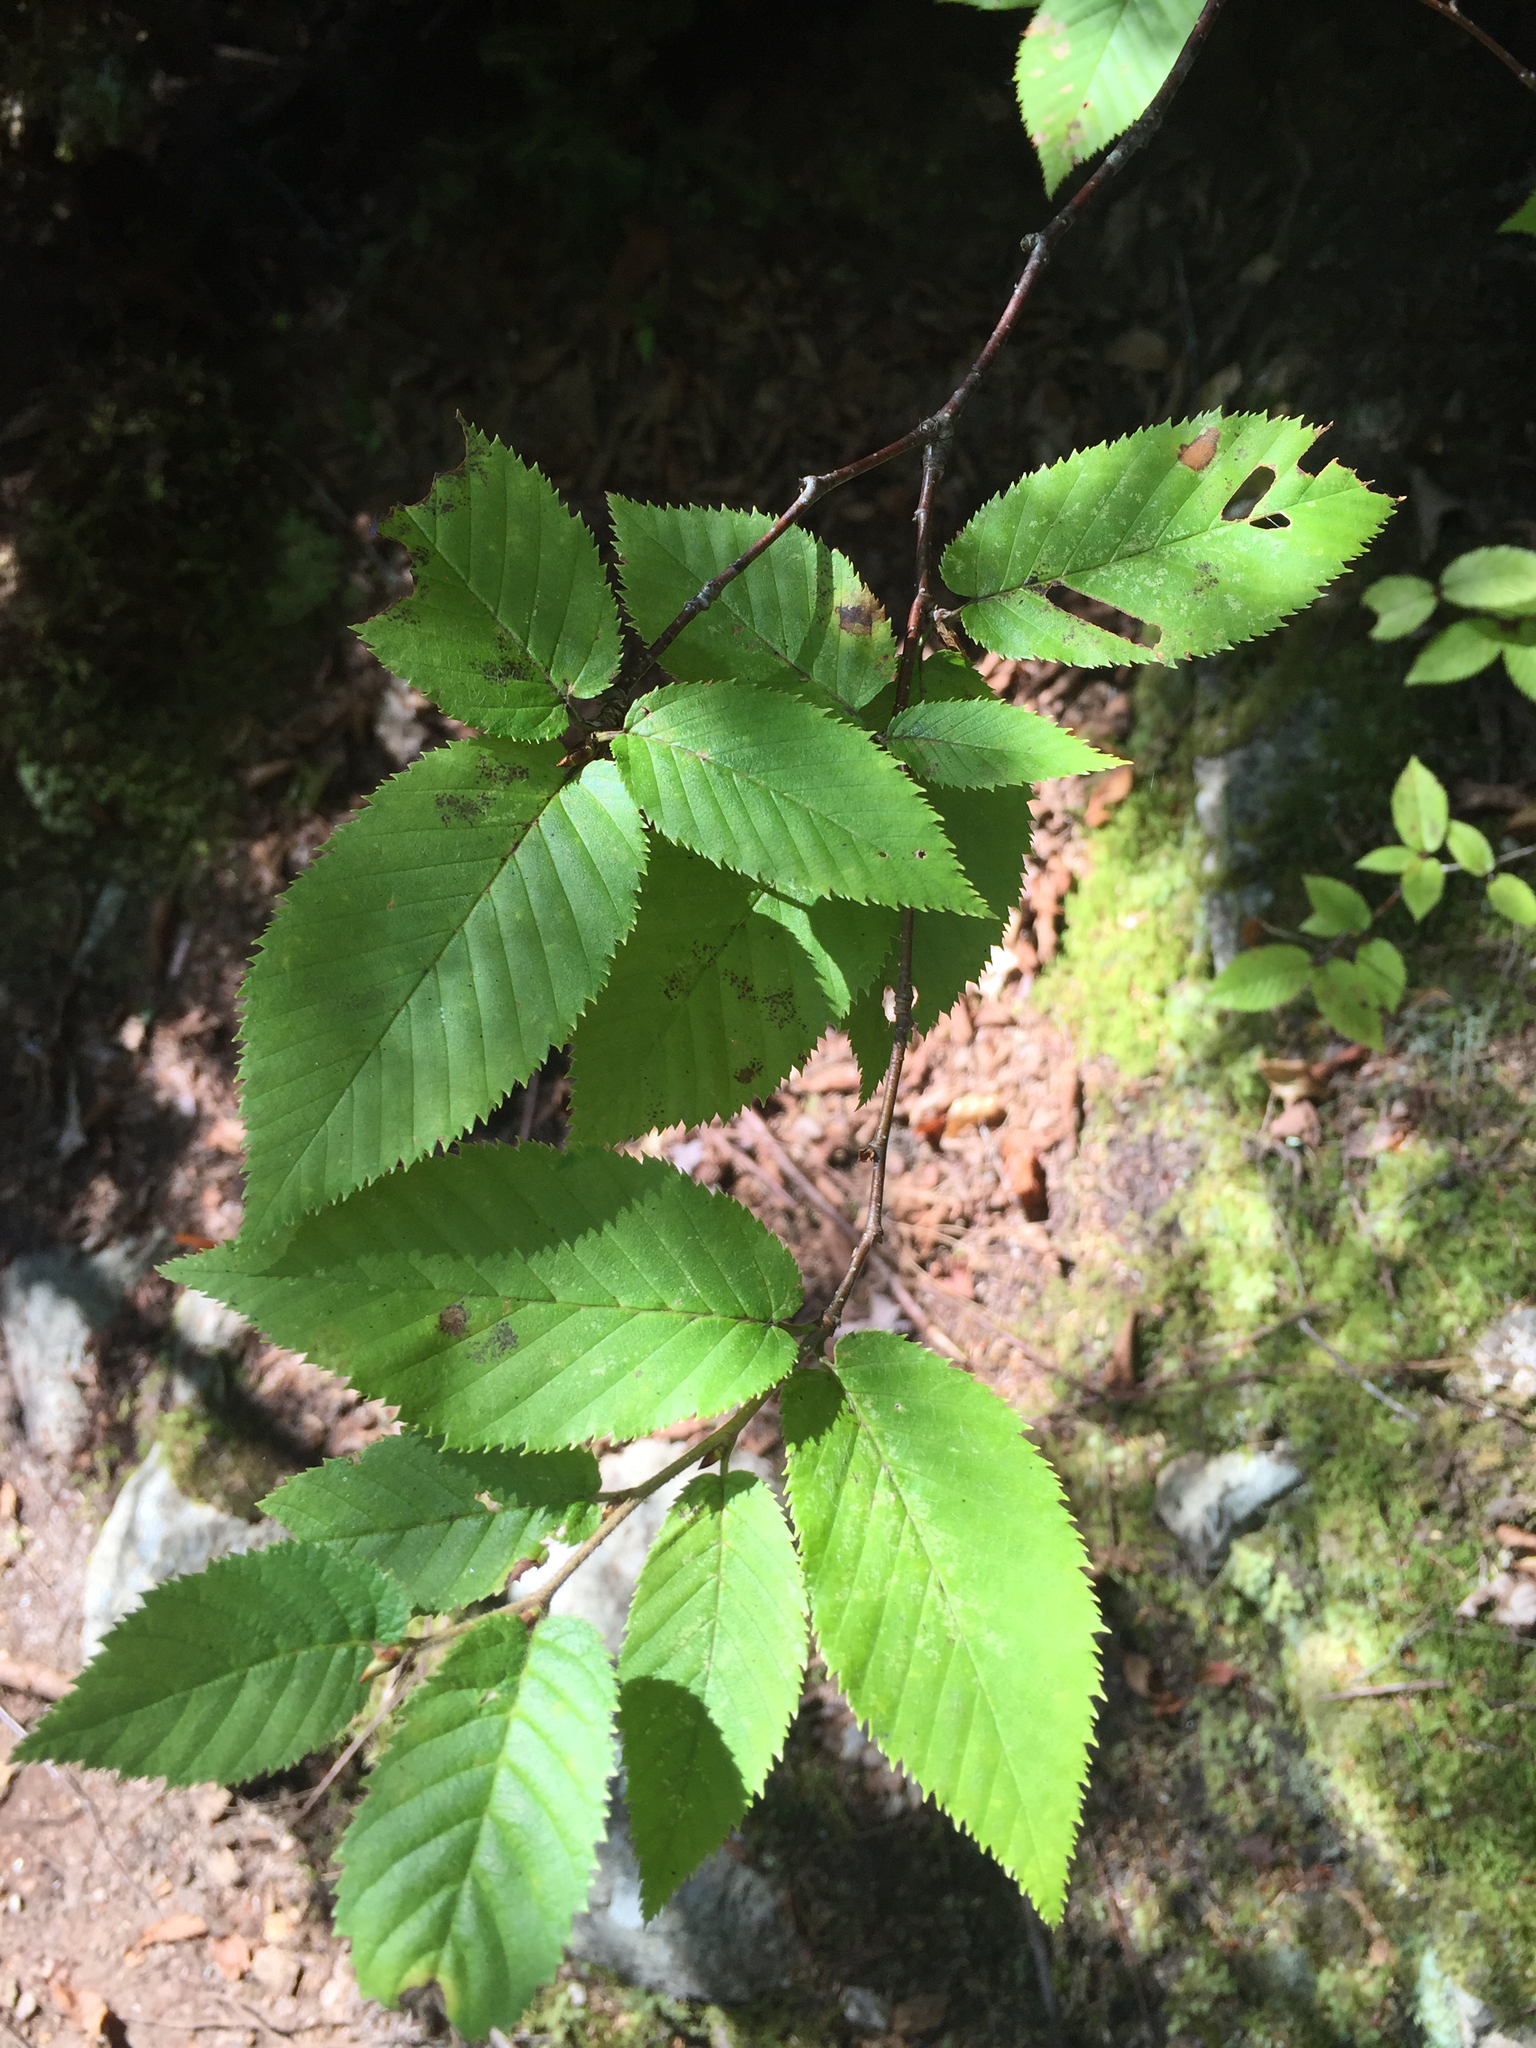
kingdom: Plantae
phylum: Tracheophyta
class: Magnoliopsida
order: Fagales
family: Betulaceae
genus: Betula
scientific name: Betula alleghaniensis
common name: Yellow birch
